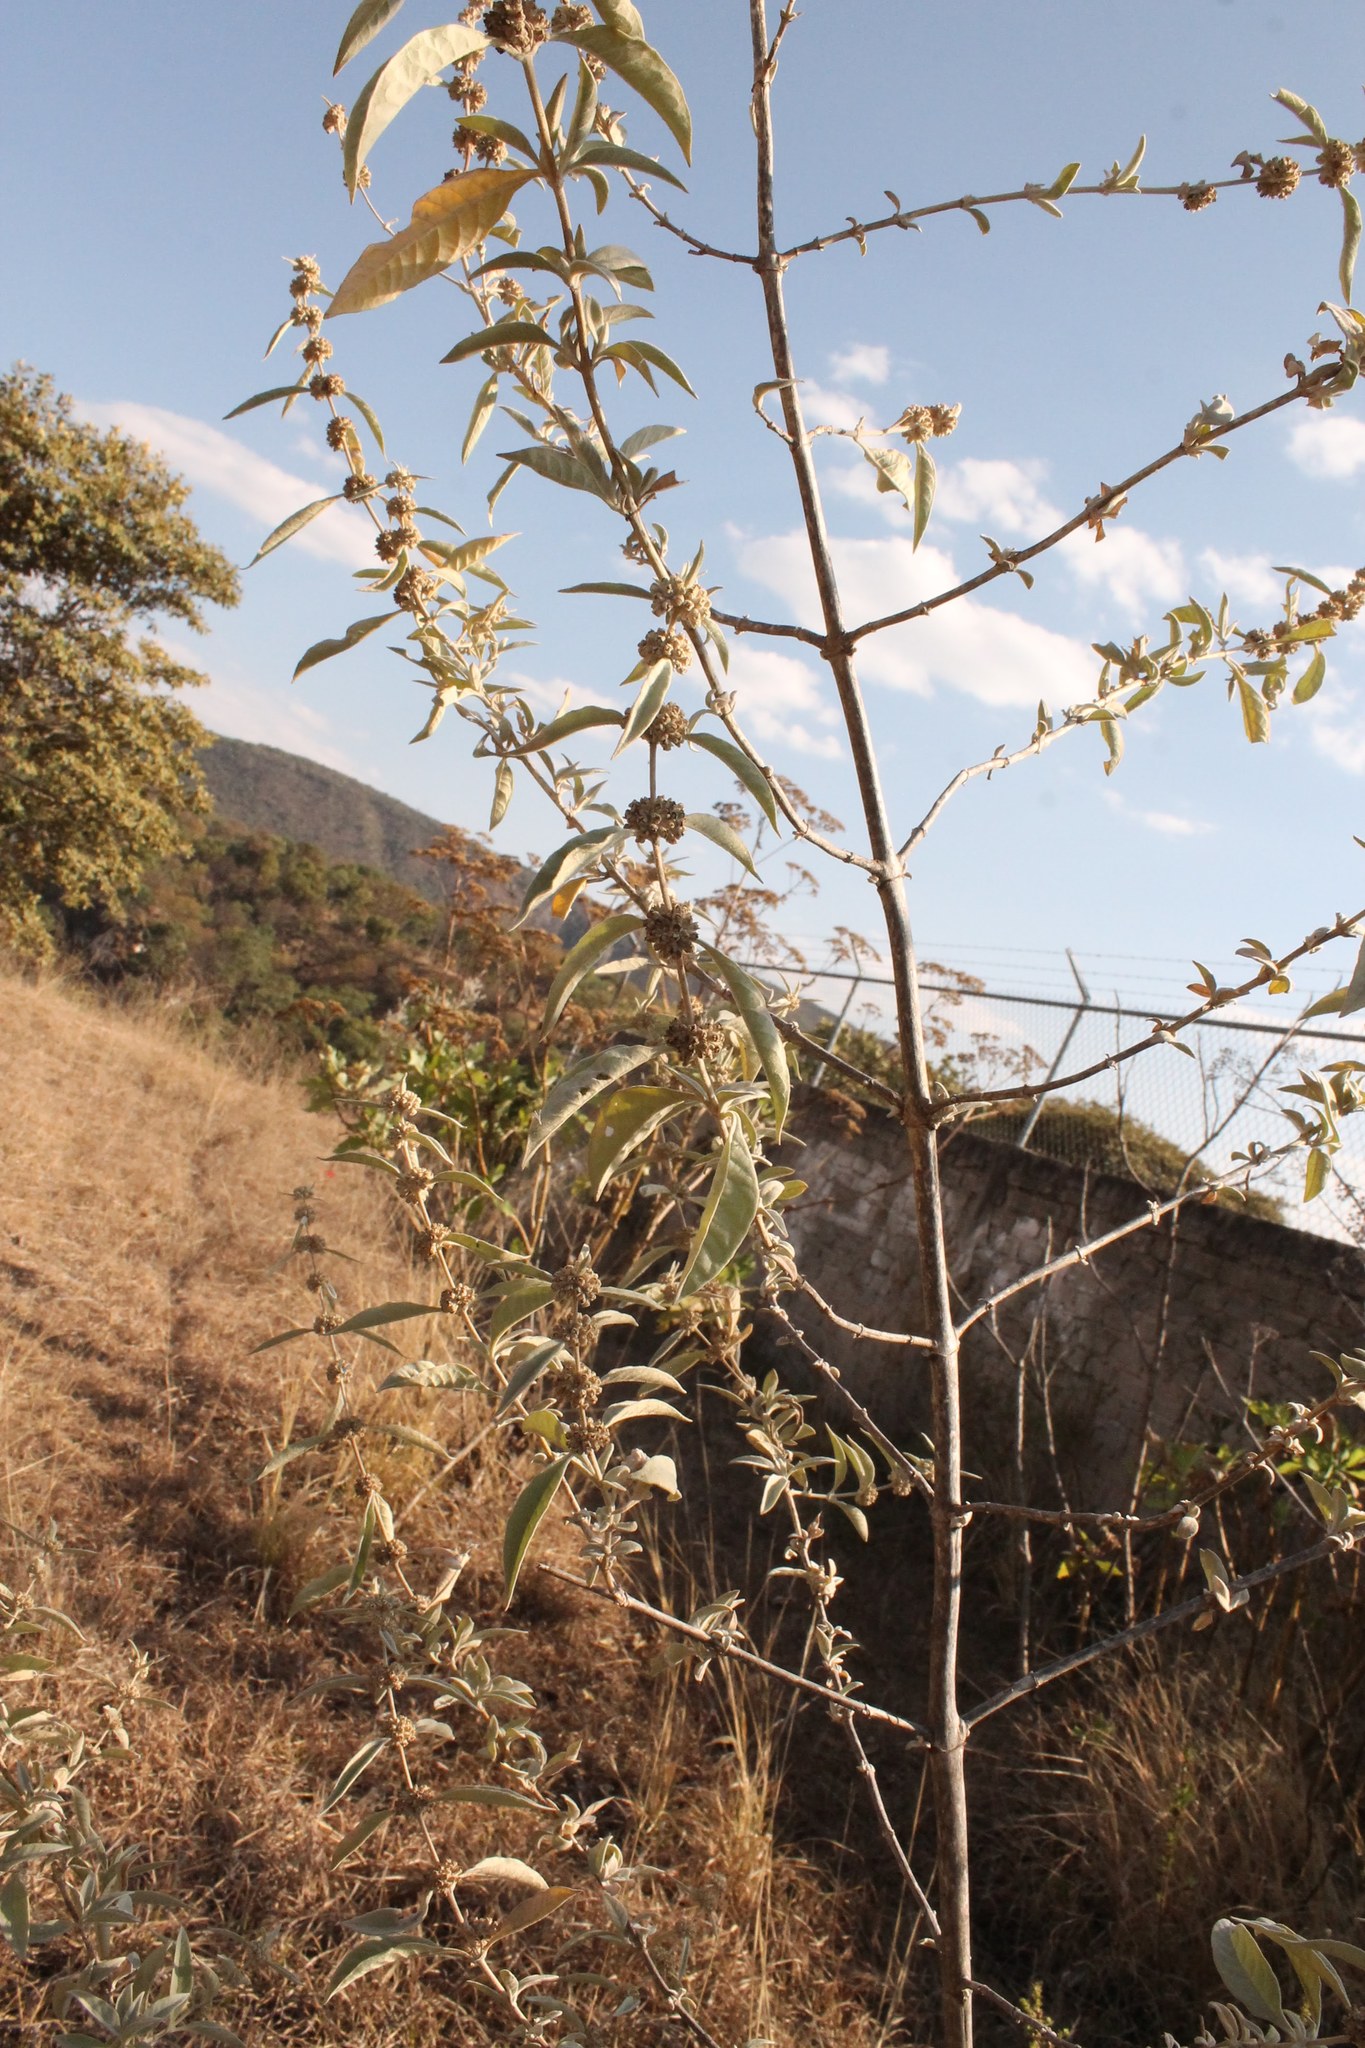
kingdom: Plantae
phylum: Tracheophyta
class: Magnoliopsida
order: Lamiales
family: Scrophulariaceae
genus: Buddleja
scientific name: Buddleja sessiliflora
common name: Rio grande butterfly-bush
